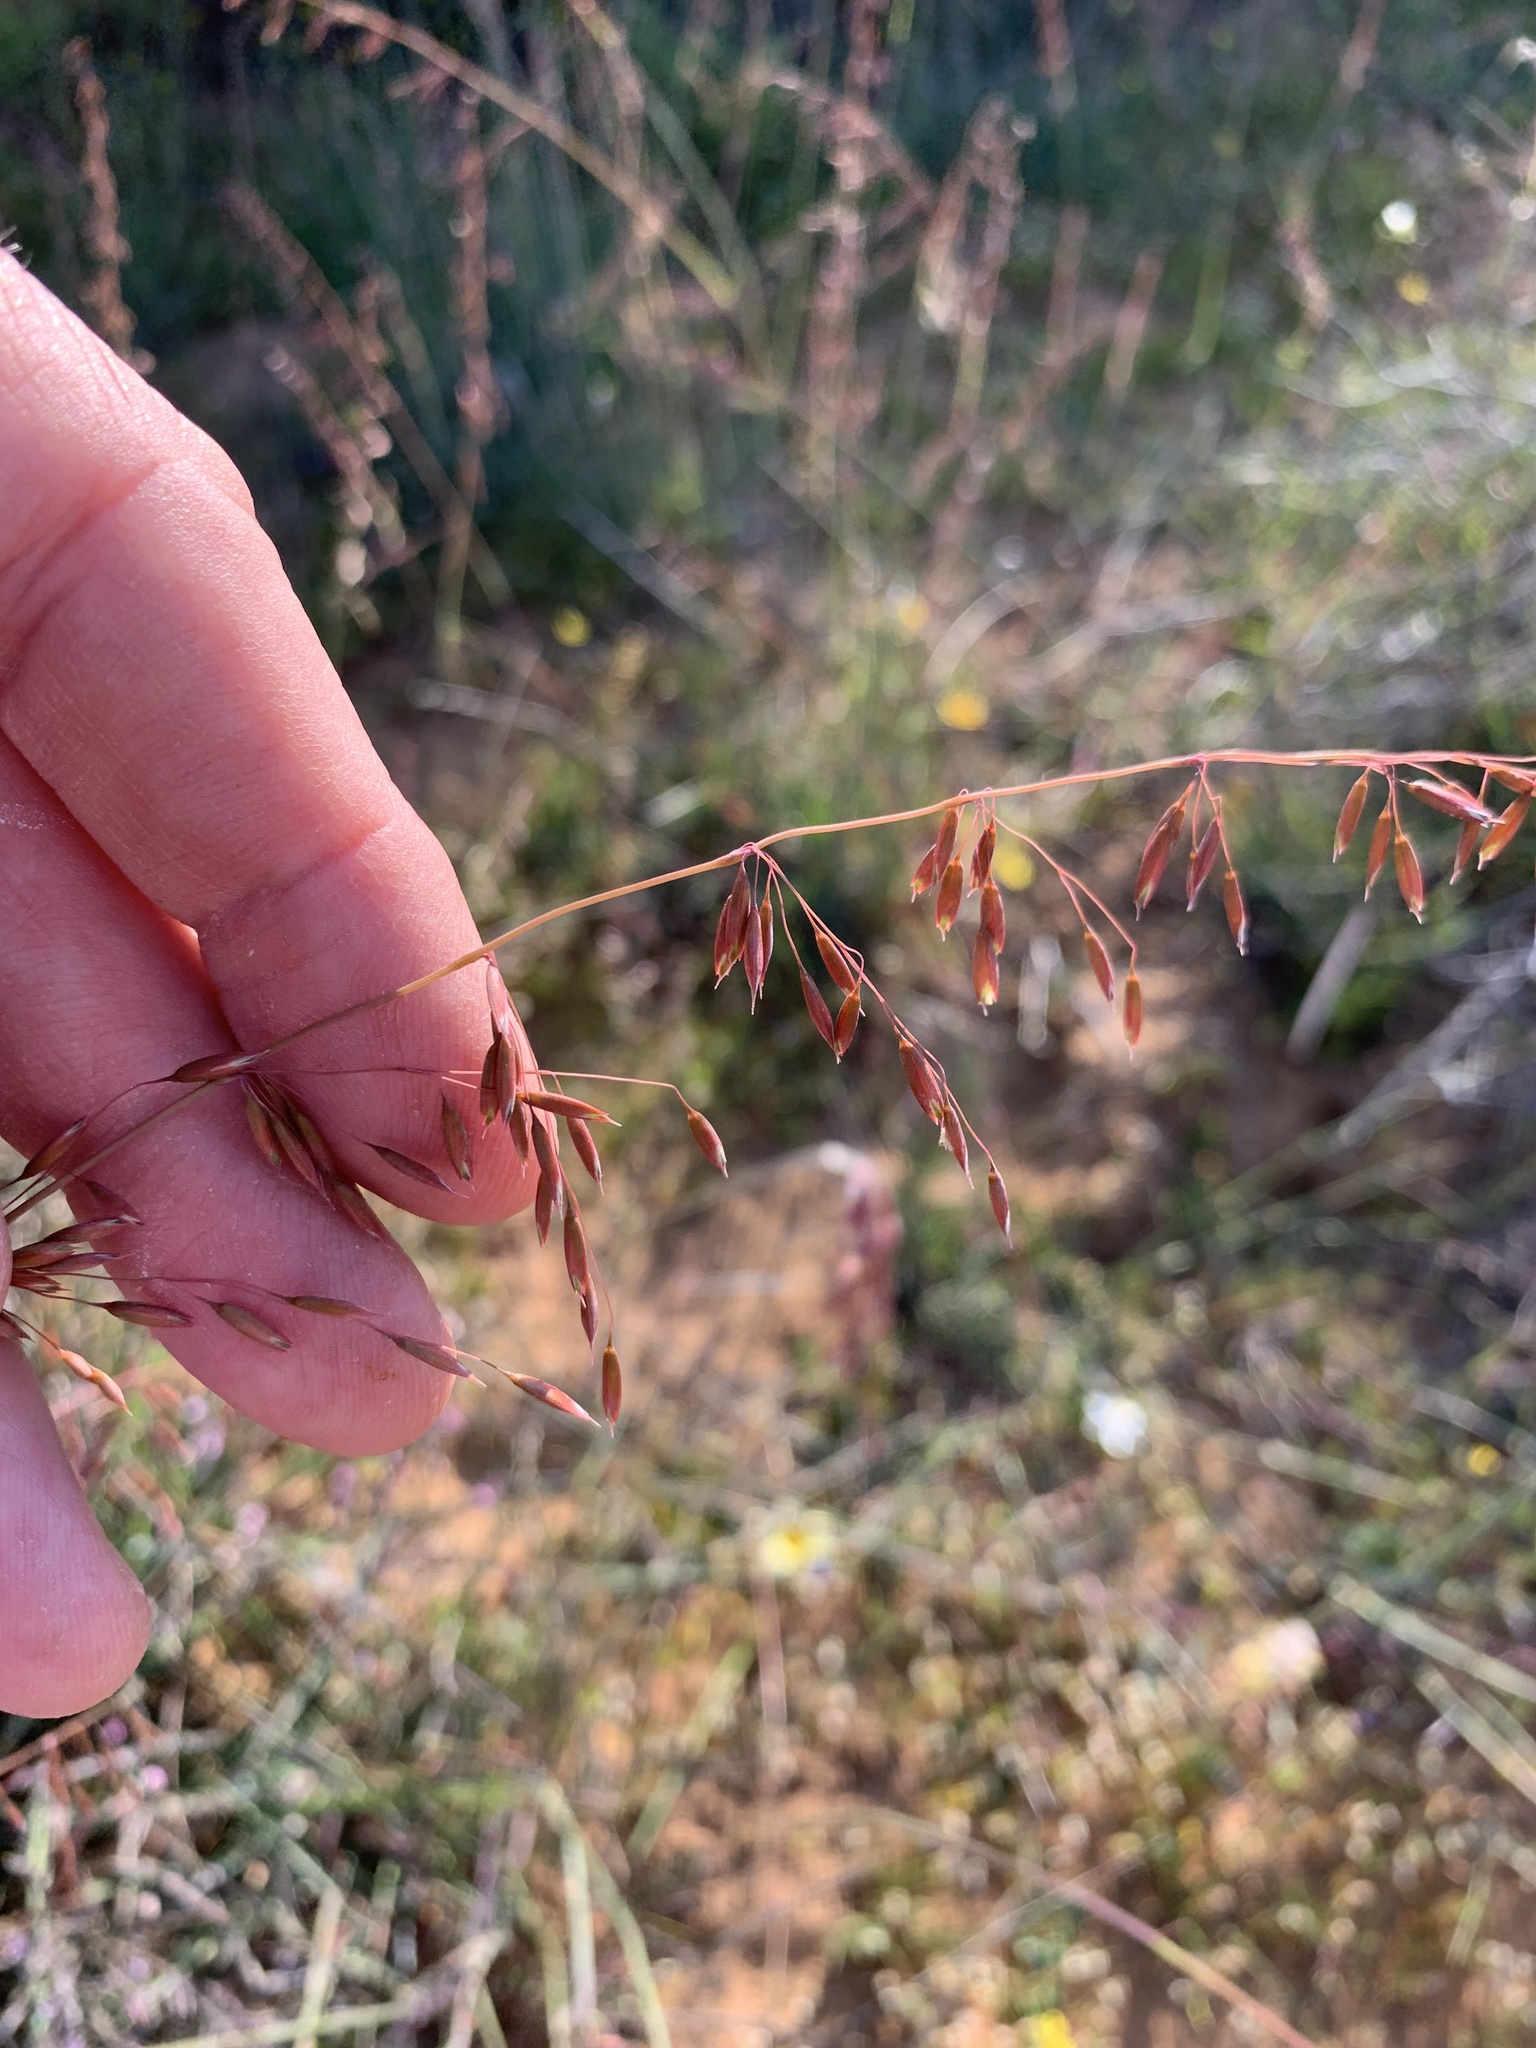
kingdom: Plantae
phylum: Tracheophyta
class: Liliopsida
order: Poales
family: Poaceae
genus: Ehrharta
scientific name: Ehrharta calycina
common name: Perennial veldtgrass
